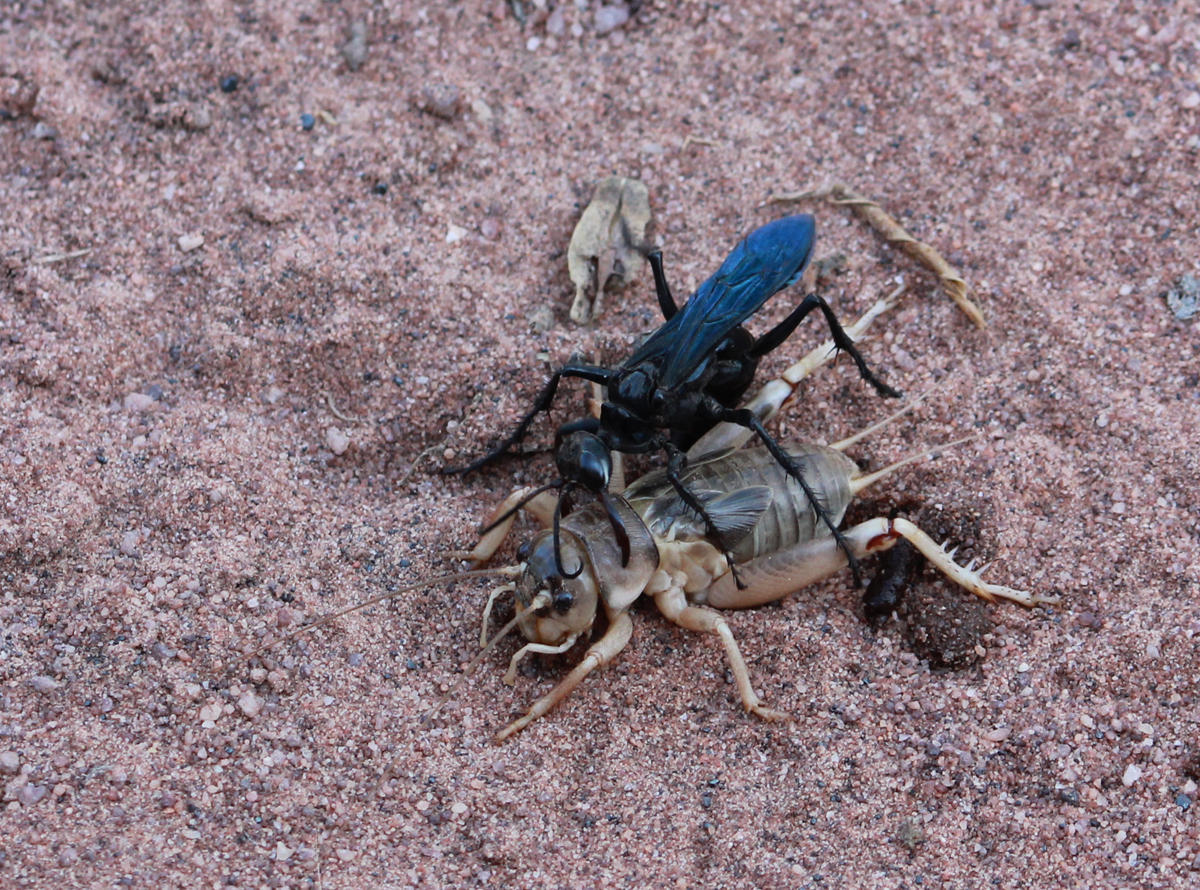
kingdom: Animalia
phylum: Arthropoda
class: Insecta
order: Hymenoptera
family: Sphecidae
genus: Chlorion
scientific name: Chlorion maxillosum
